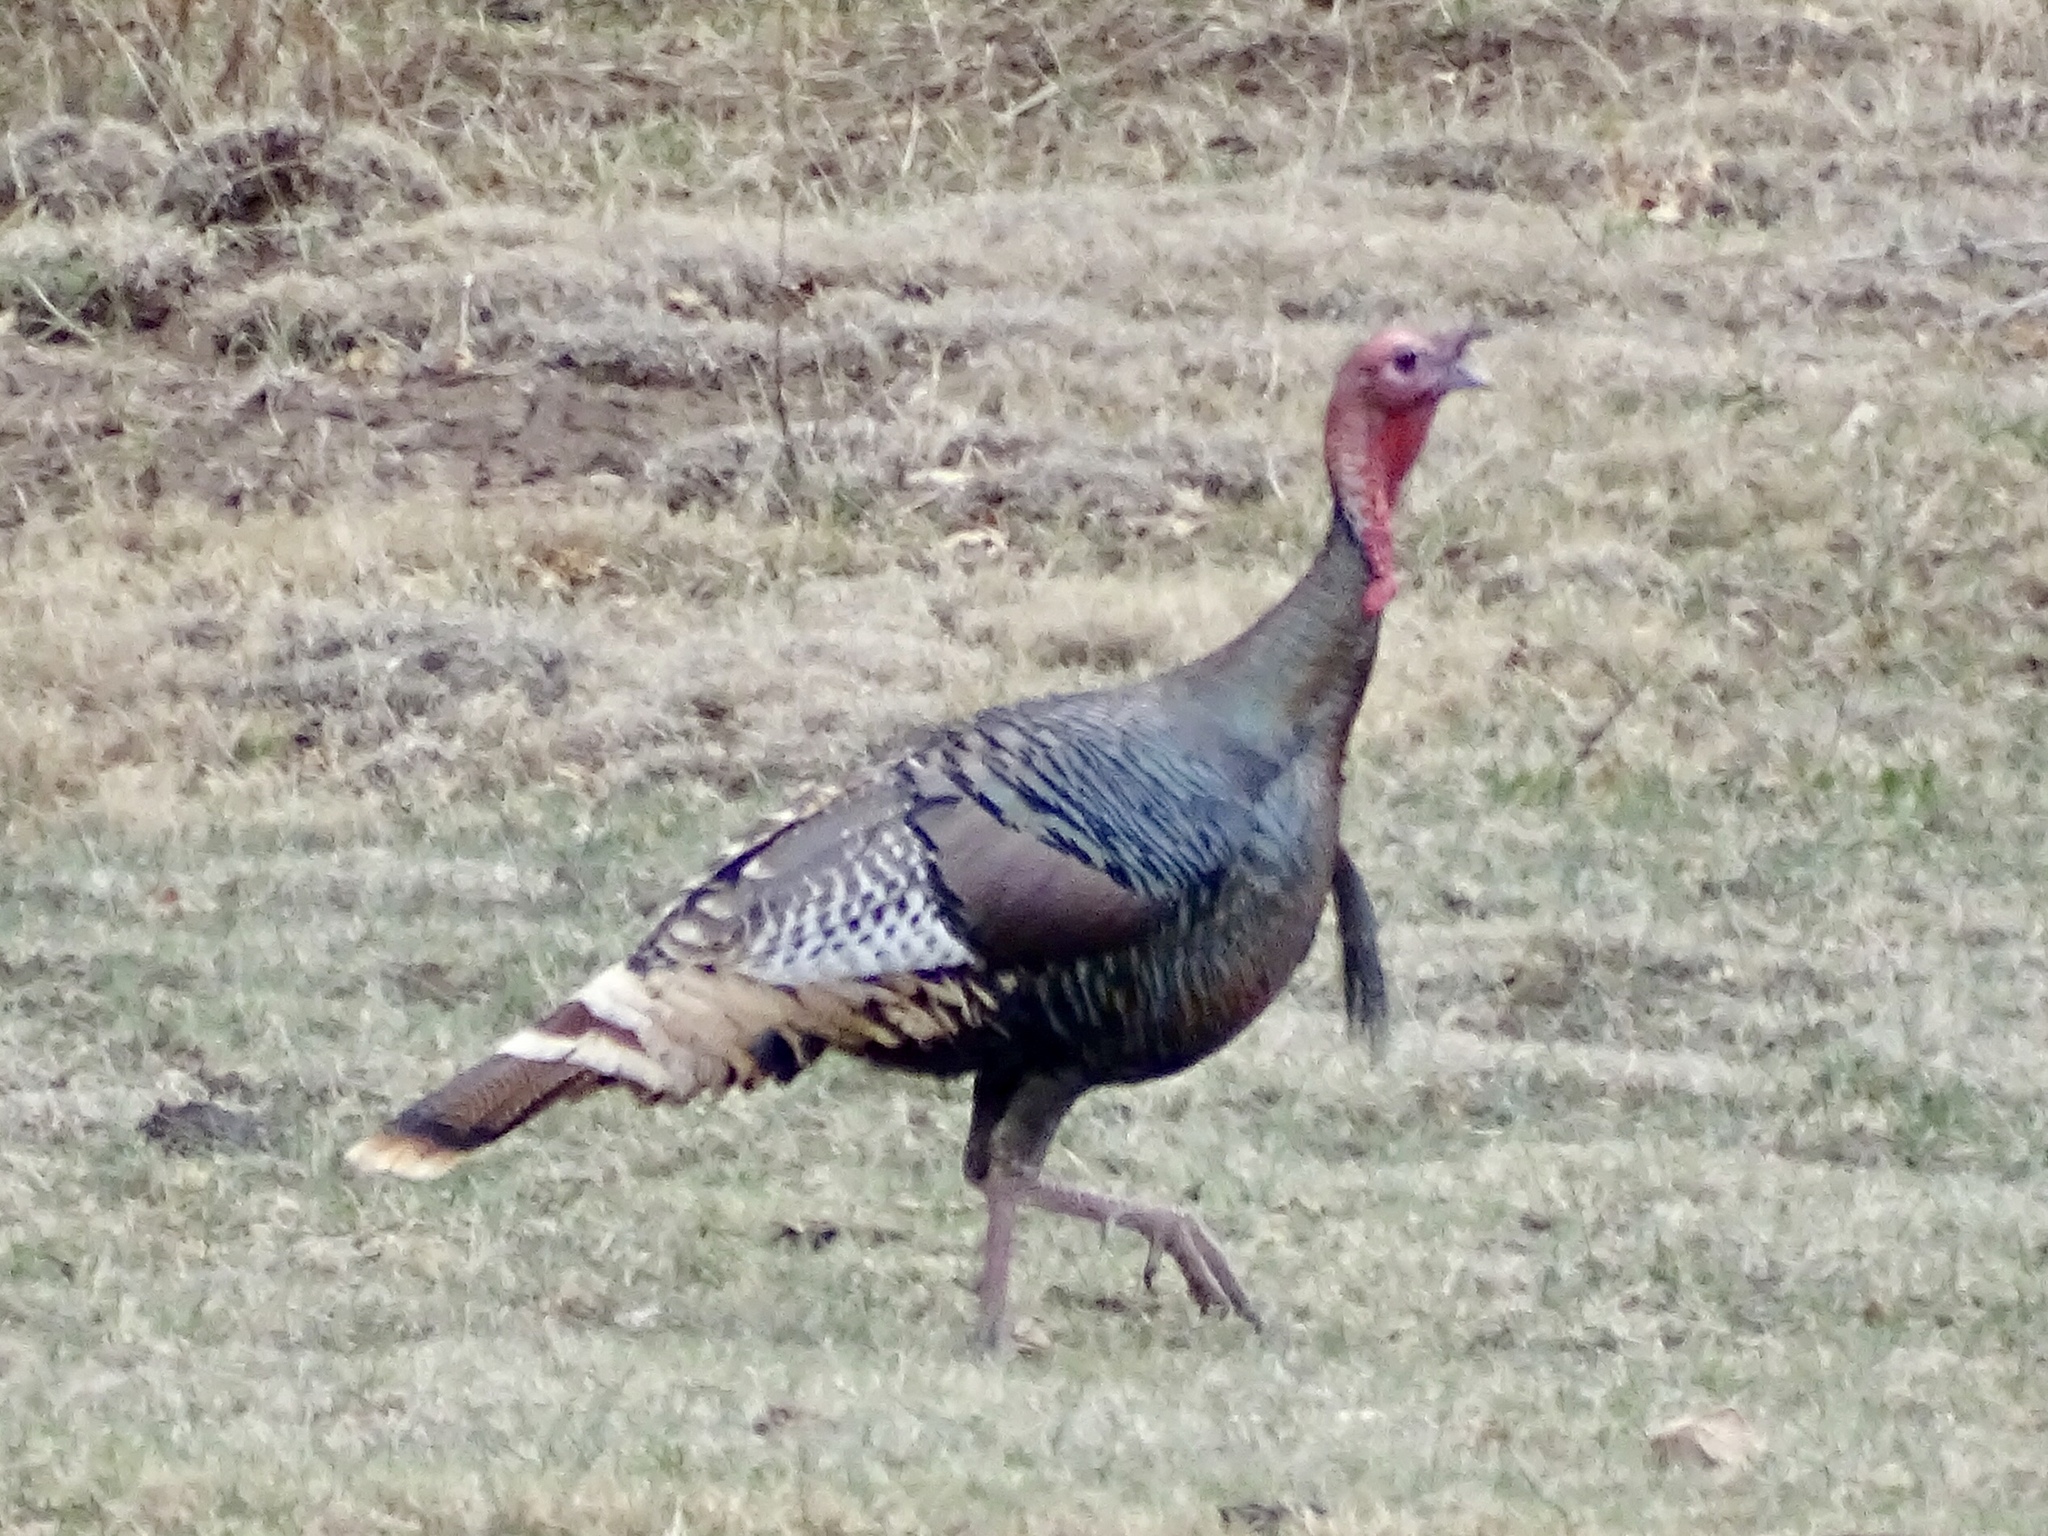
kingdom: Animalia
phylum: Chordata
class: Aves
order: Galliformes
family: Phasianidae
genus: Meleagris
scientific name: Meleagris gallopavo
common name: Wild turkey
